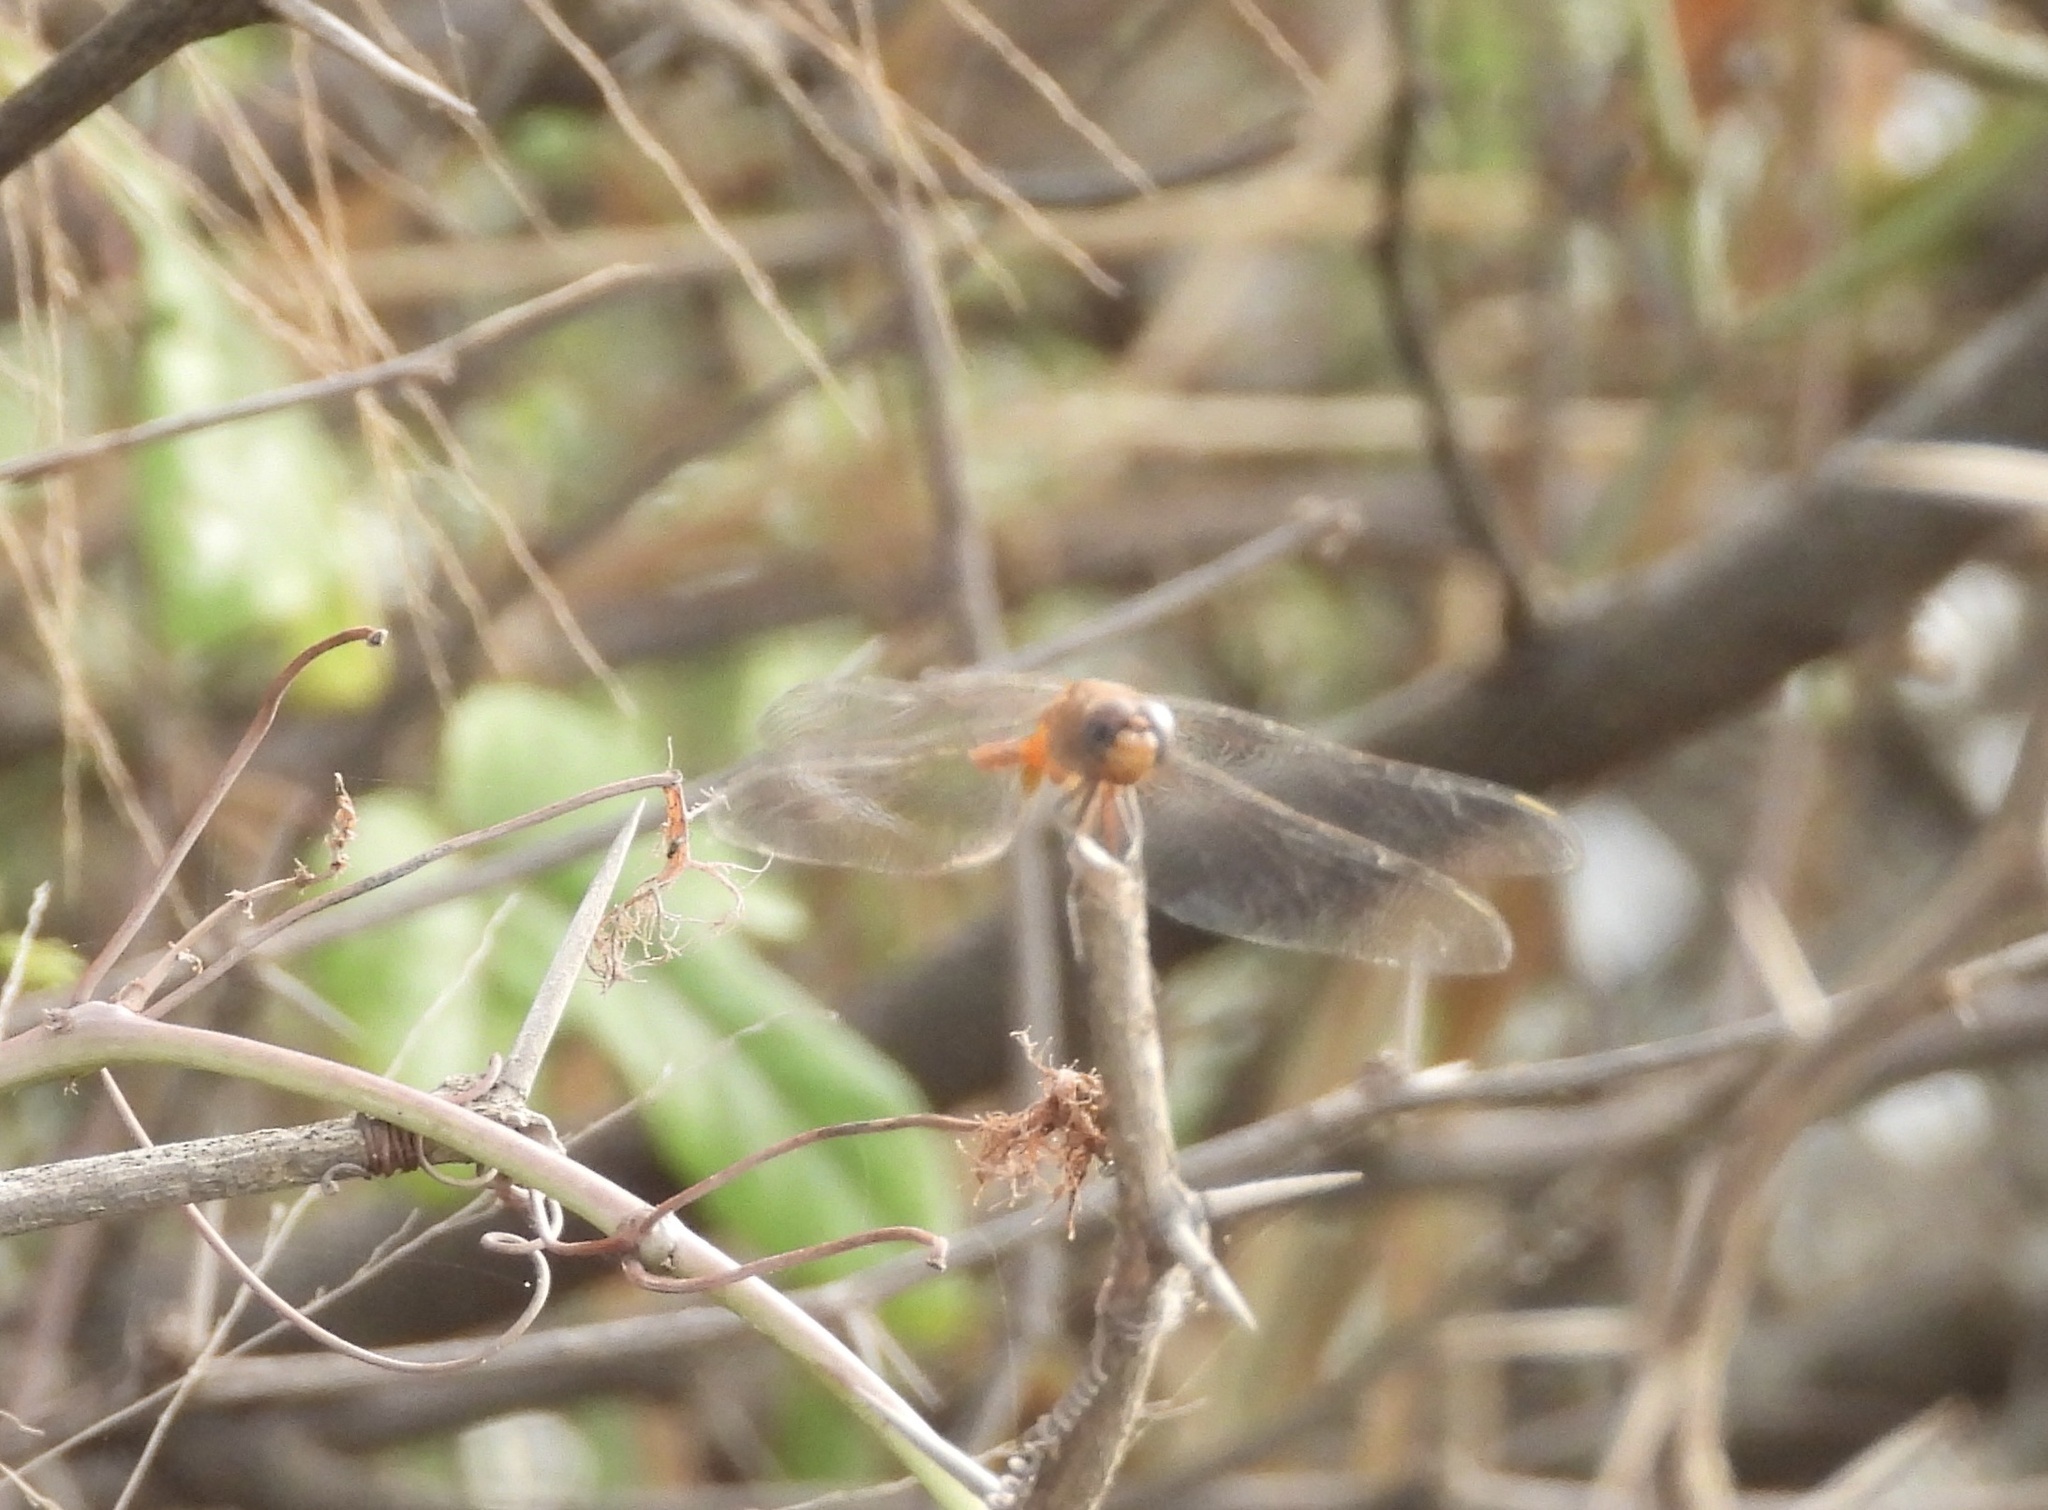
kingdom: Animalia
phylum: Arthropoda
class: Insecta
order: Odonata
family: Libellulidae
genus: Brachymesia
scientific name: Brachymesia furcata
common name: Red-taled pennant
